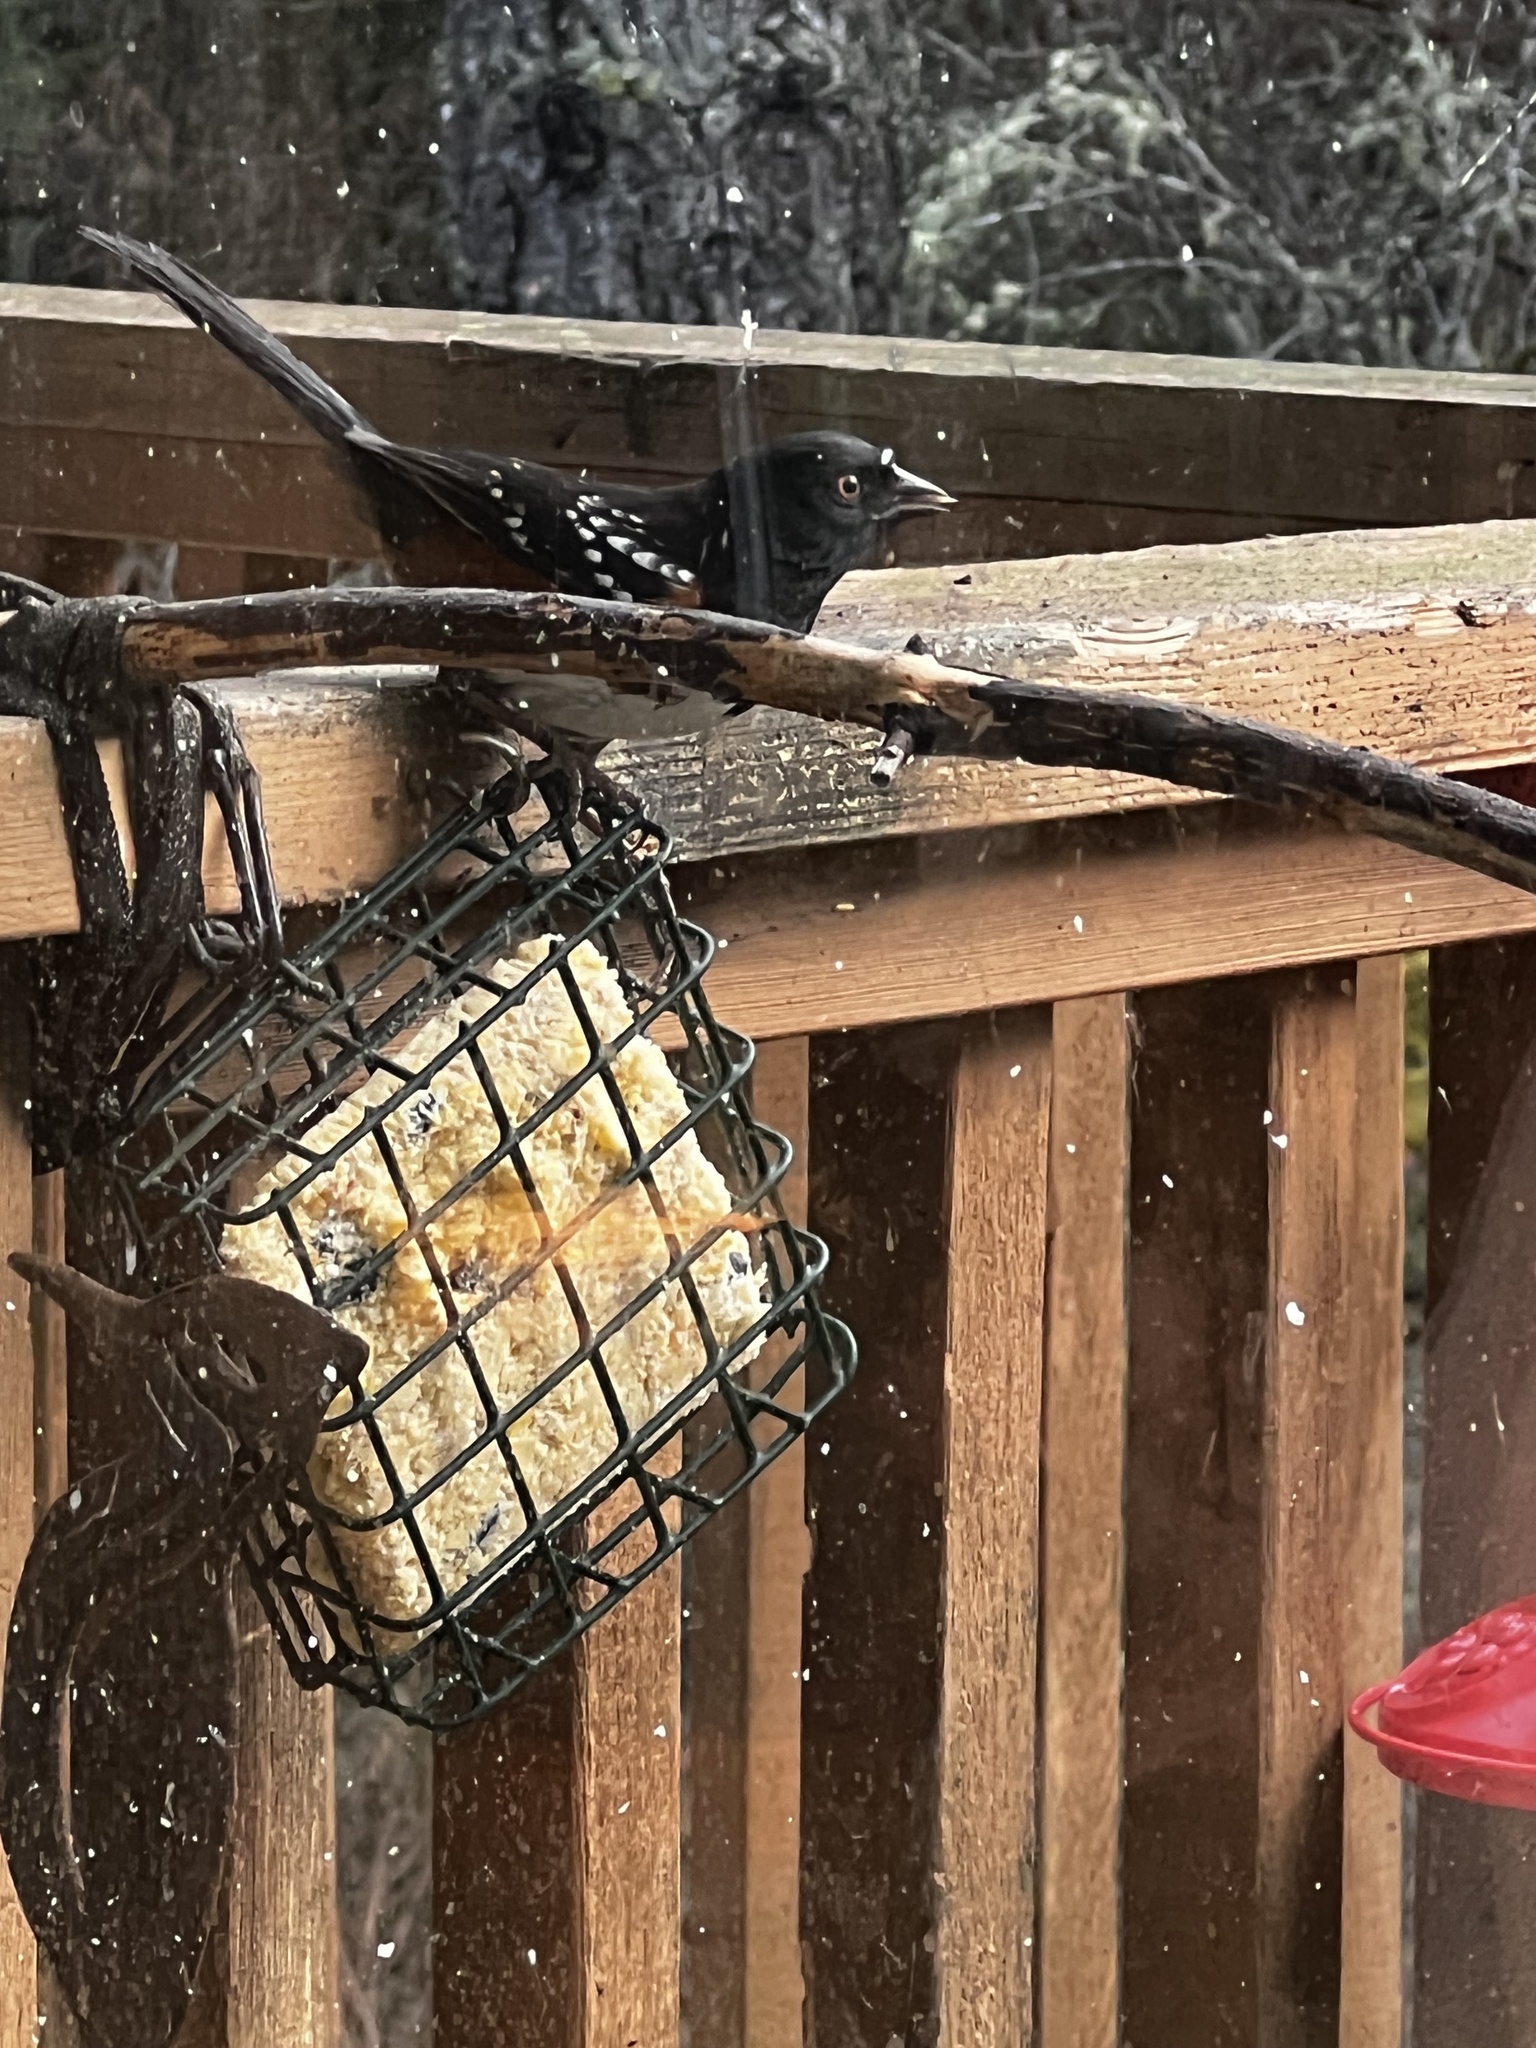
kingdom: Animalia
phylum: Chordata
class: Aves
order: Passeriformes
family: Passerellidae
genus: Pipilo
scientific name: Pipilo maculatus
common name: Spotted towhee
